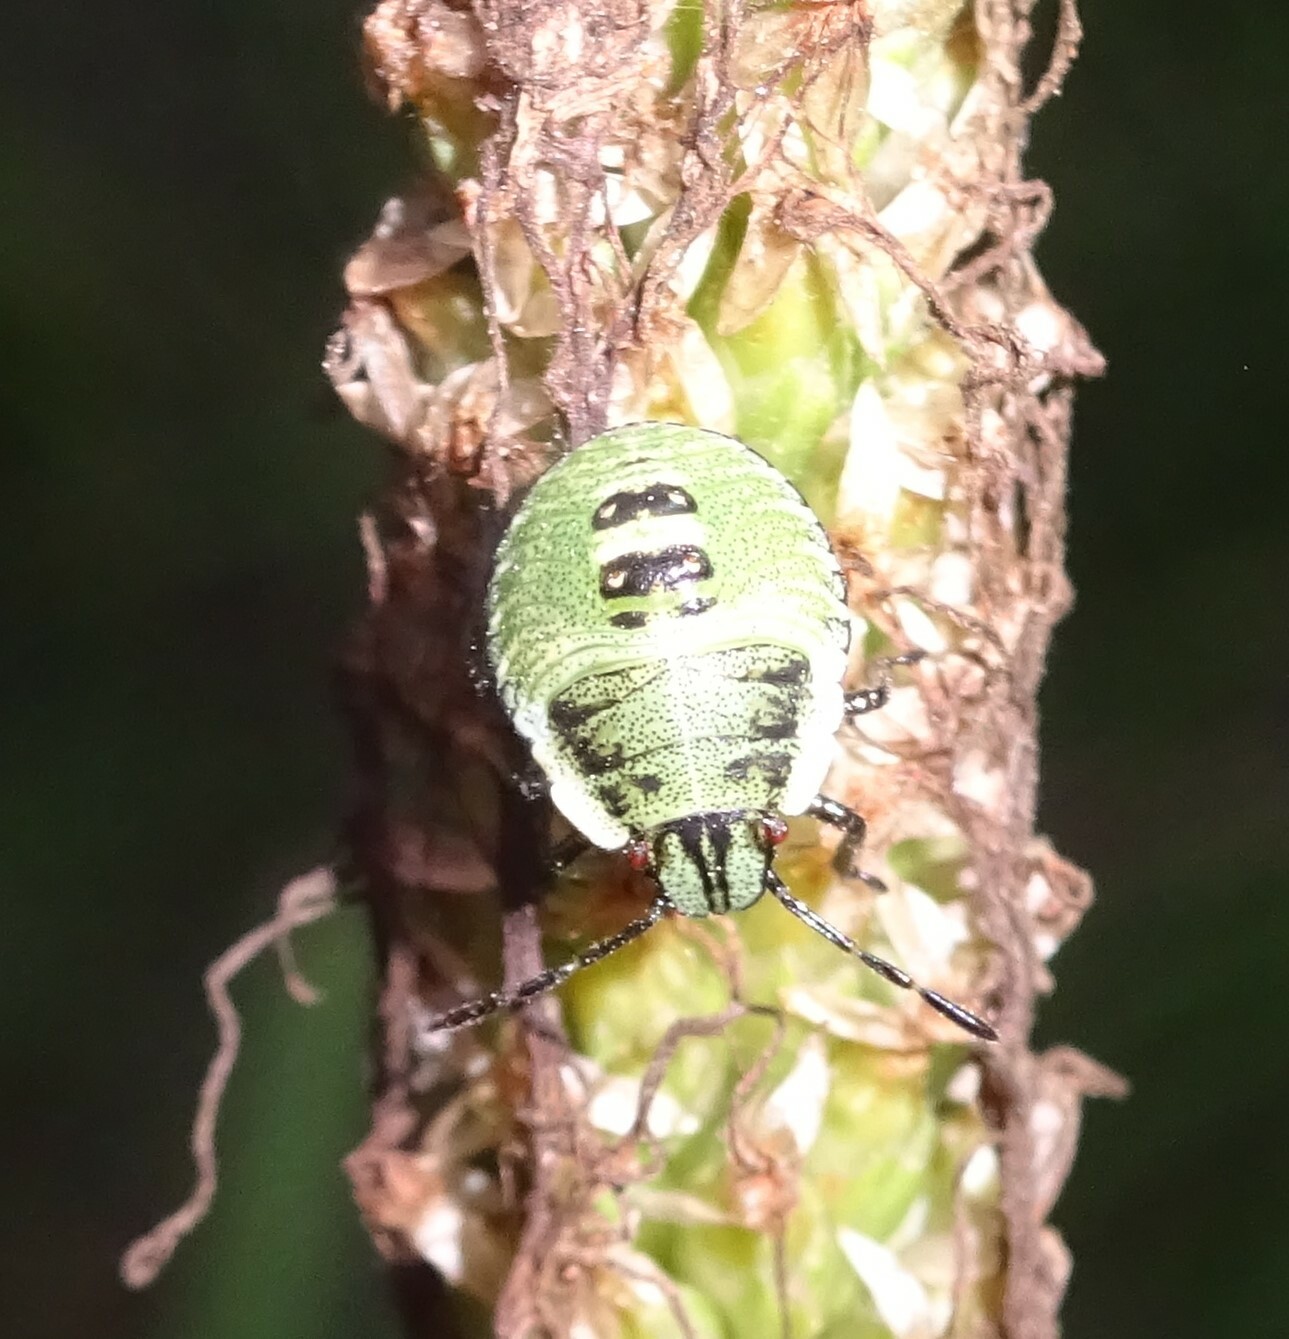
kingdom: Animalia
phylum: Arthropoda
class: Insecta
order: Hemiptera
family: Pentatomidae
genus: Palomena
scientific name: Palomena prasina
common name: Green shieldbug
